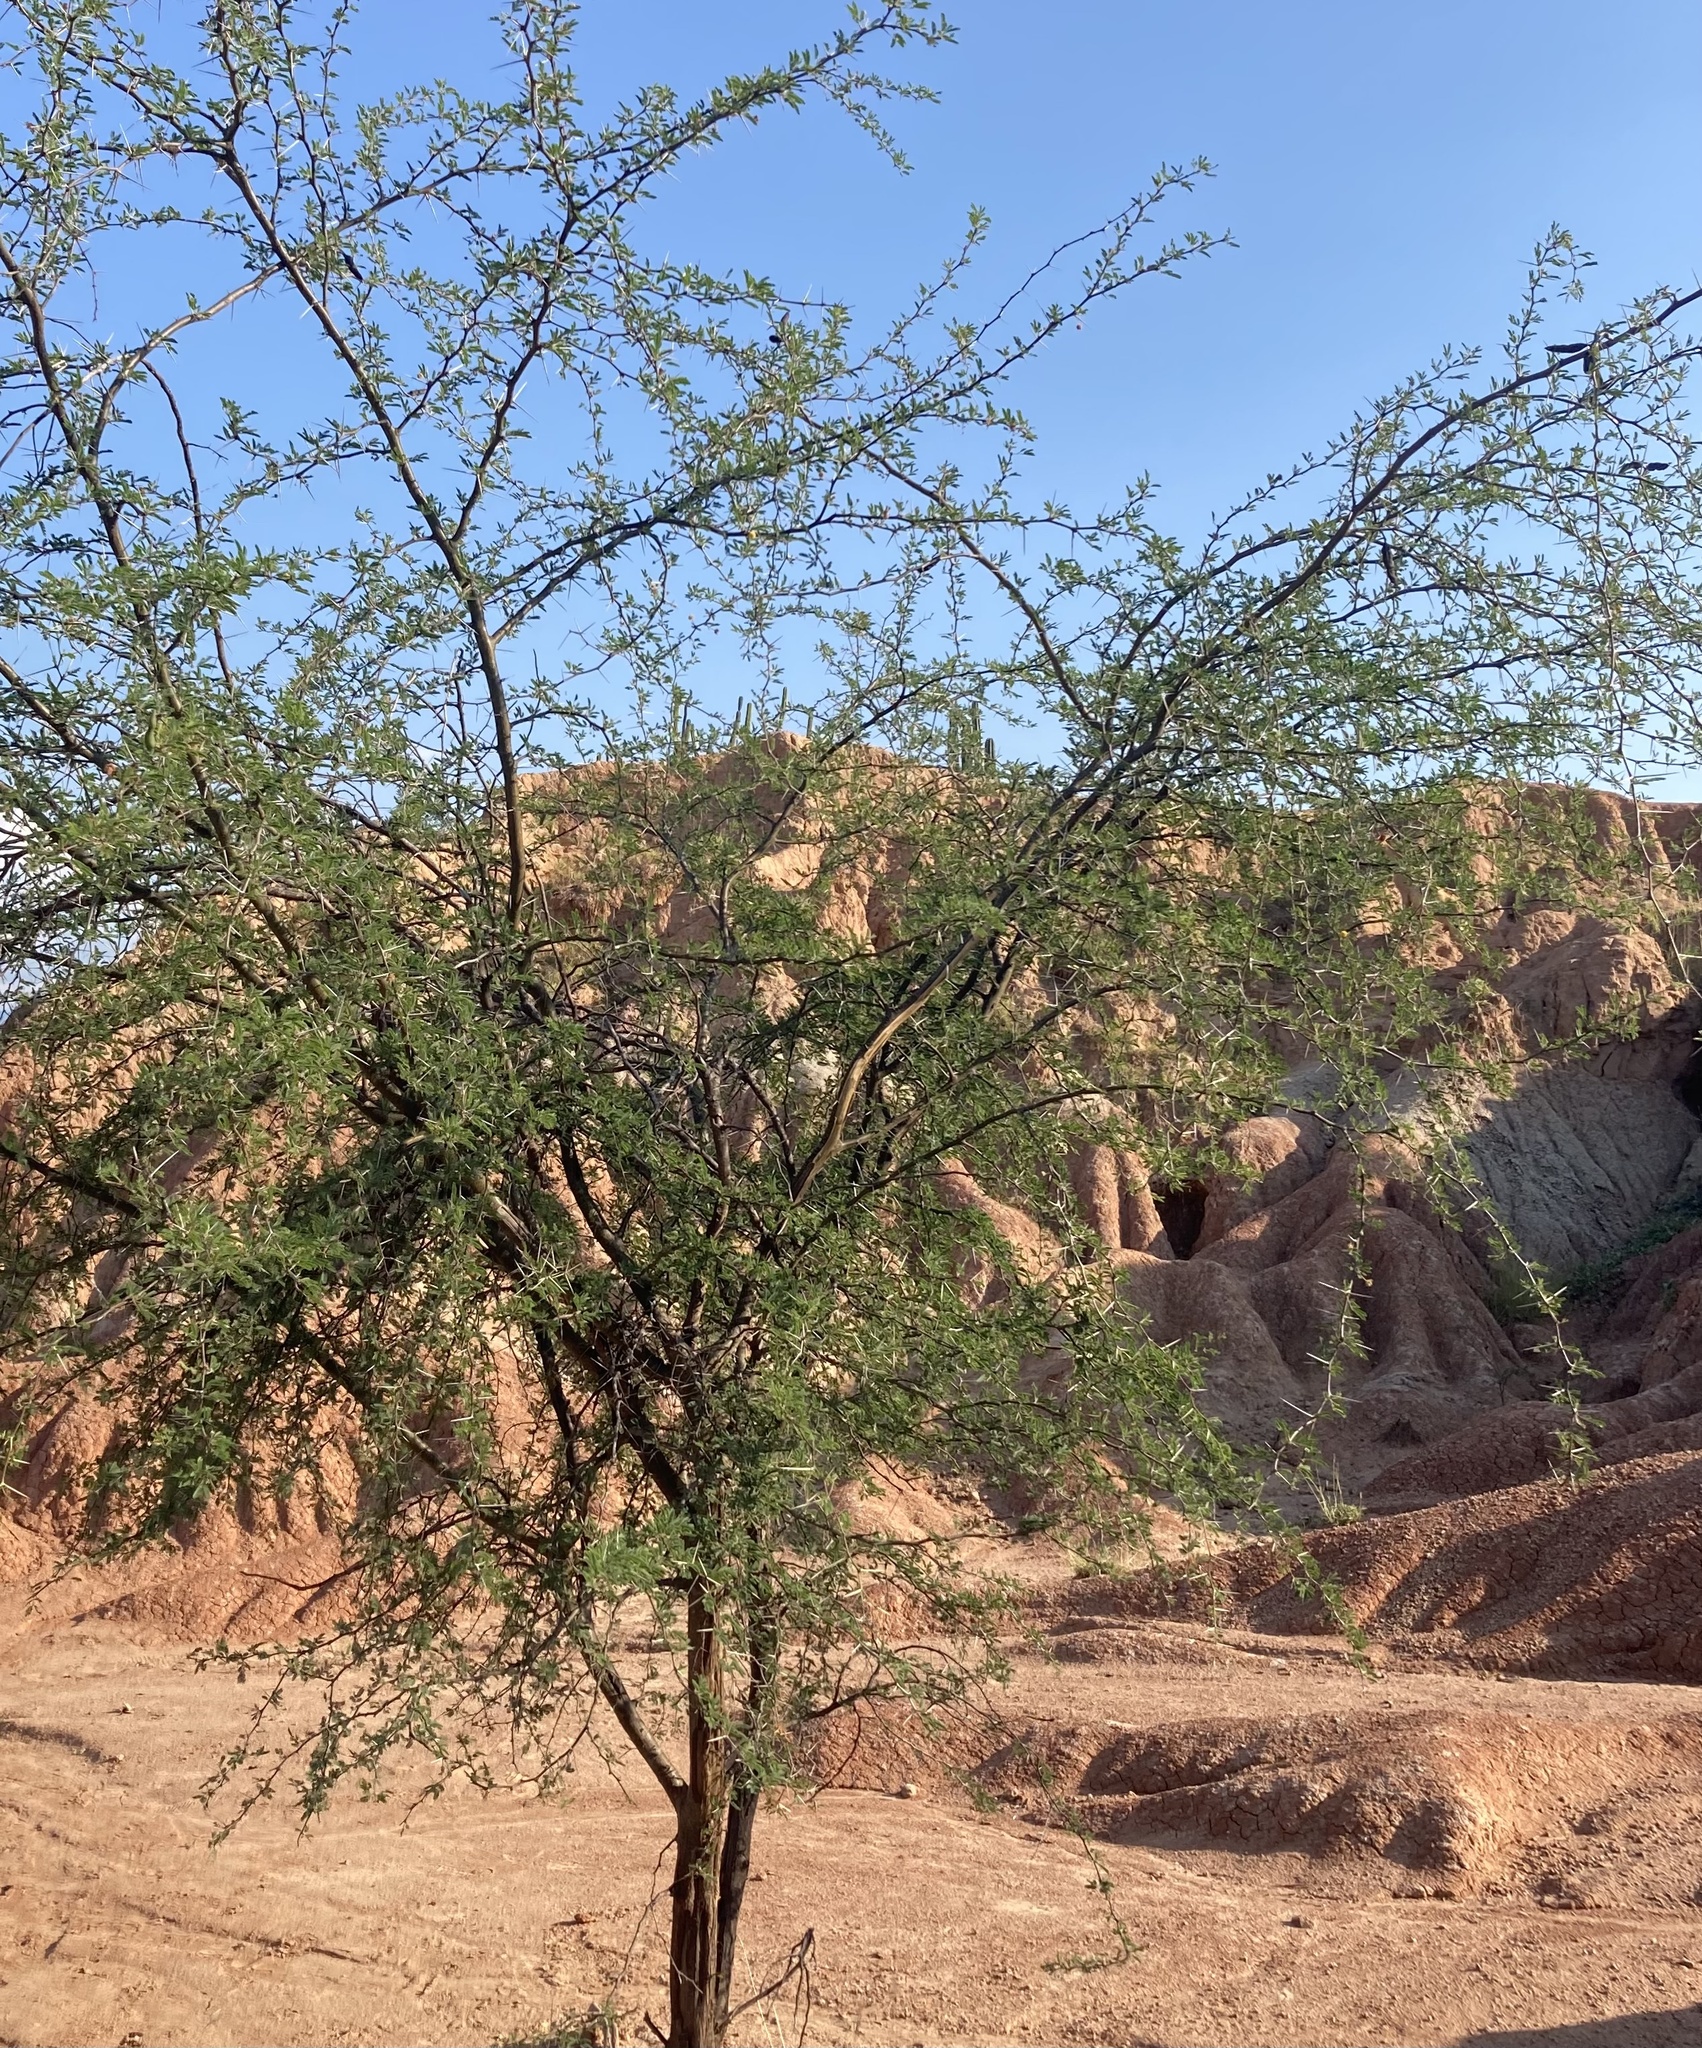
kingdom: Plantae
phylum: Tracheophyta
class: Magnoliopsida
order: Fabales
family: Fabaceae
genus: Vachellia
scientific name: Vachellia farnesiana
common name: Sweet acacia
